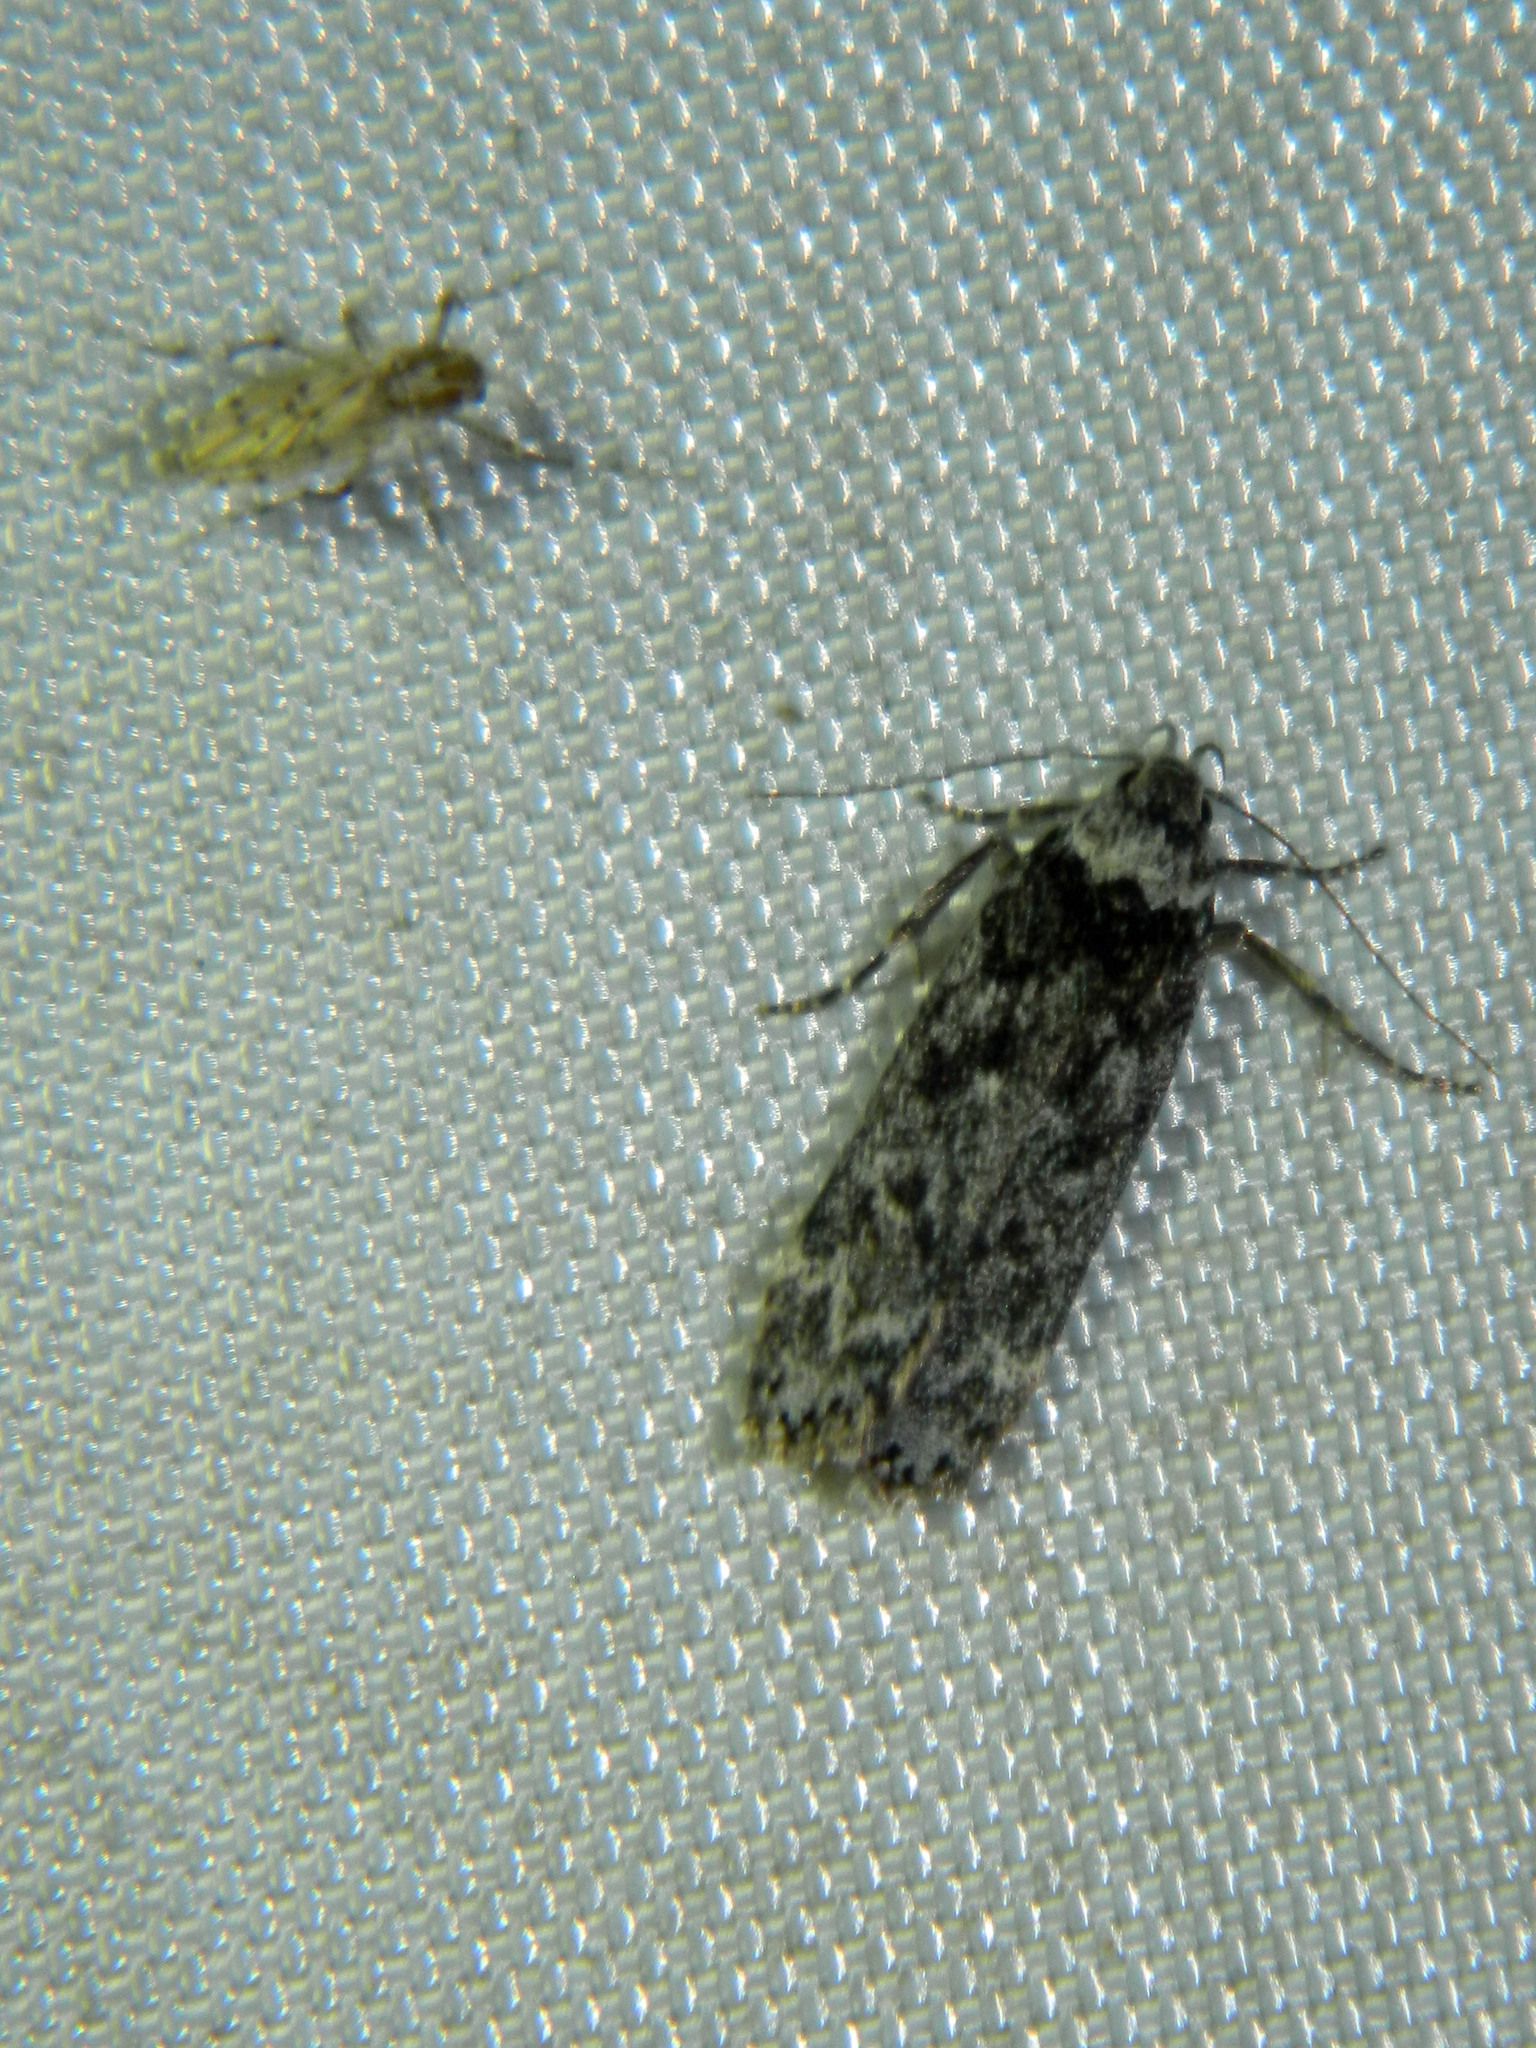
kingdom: Animalia
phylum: Arthropoda
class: Insecta
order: Lepidoptera
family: Gelechiidae
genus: Anacampsis
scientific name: Anacampsis niveopulvella
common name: Pale-headed aspen leafroller moth
